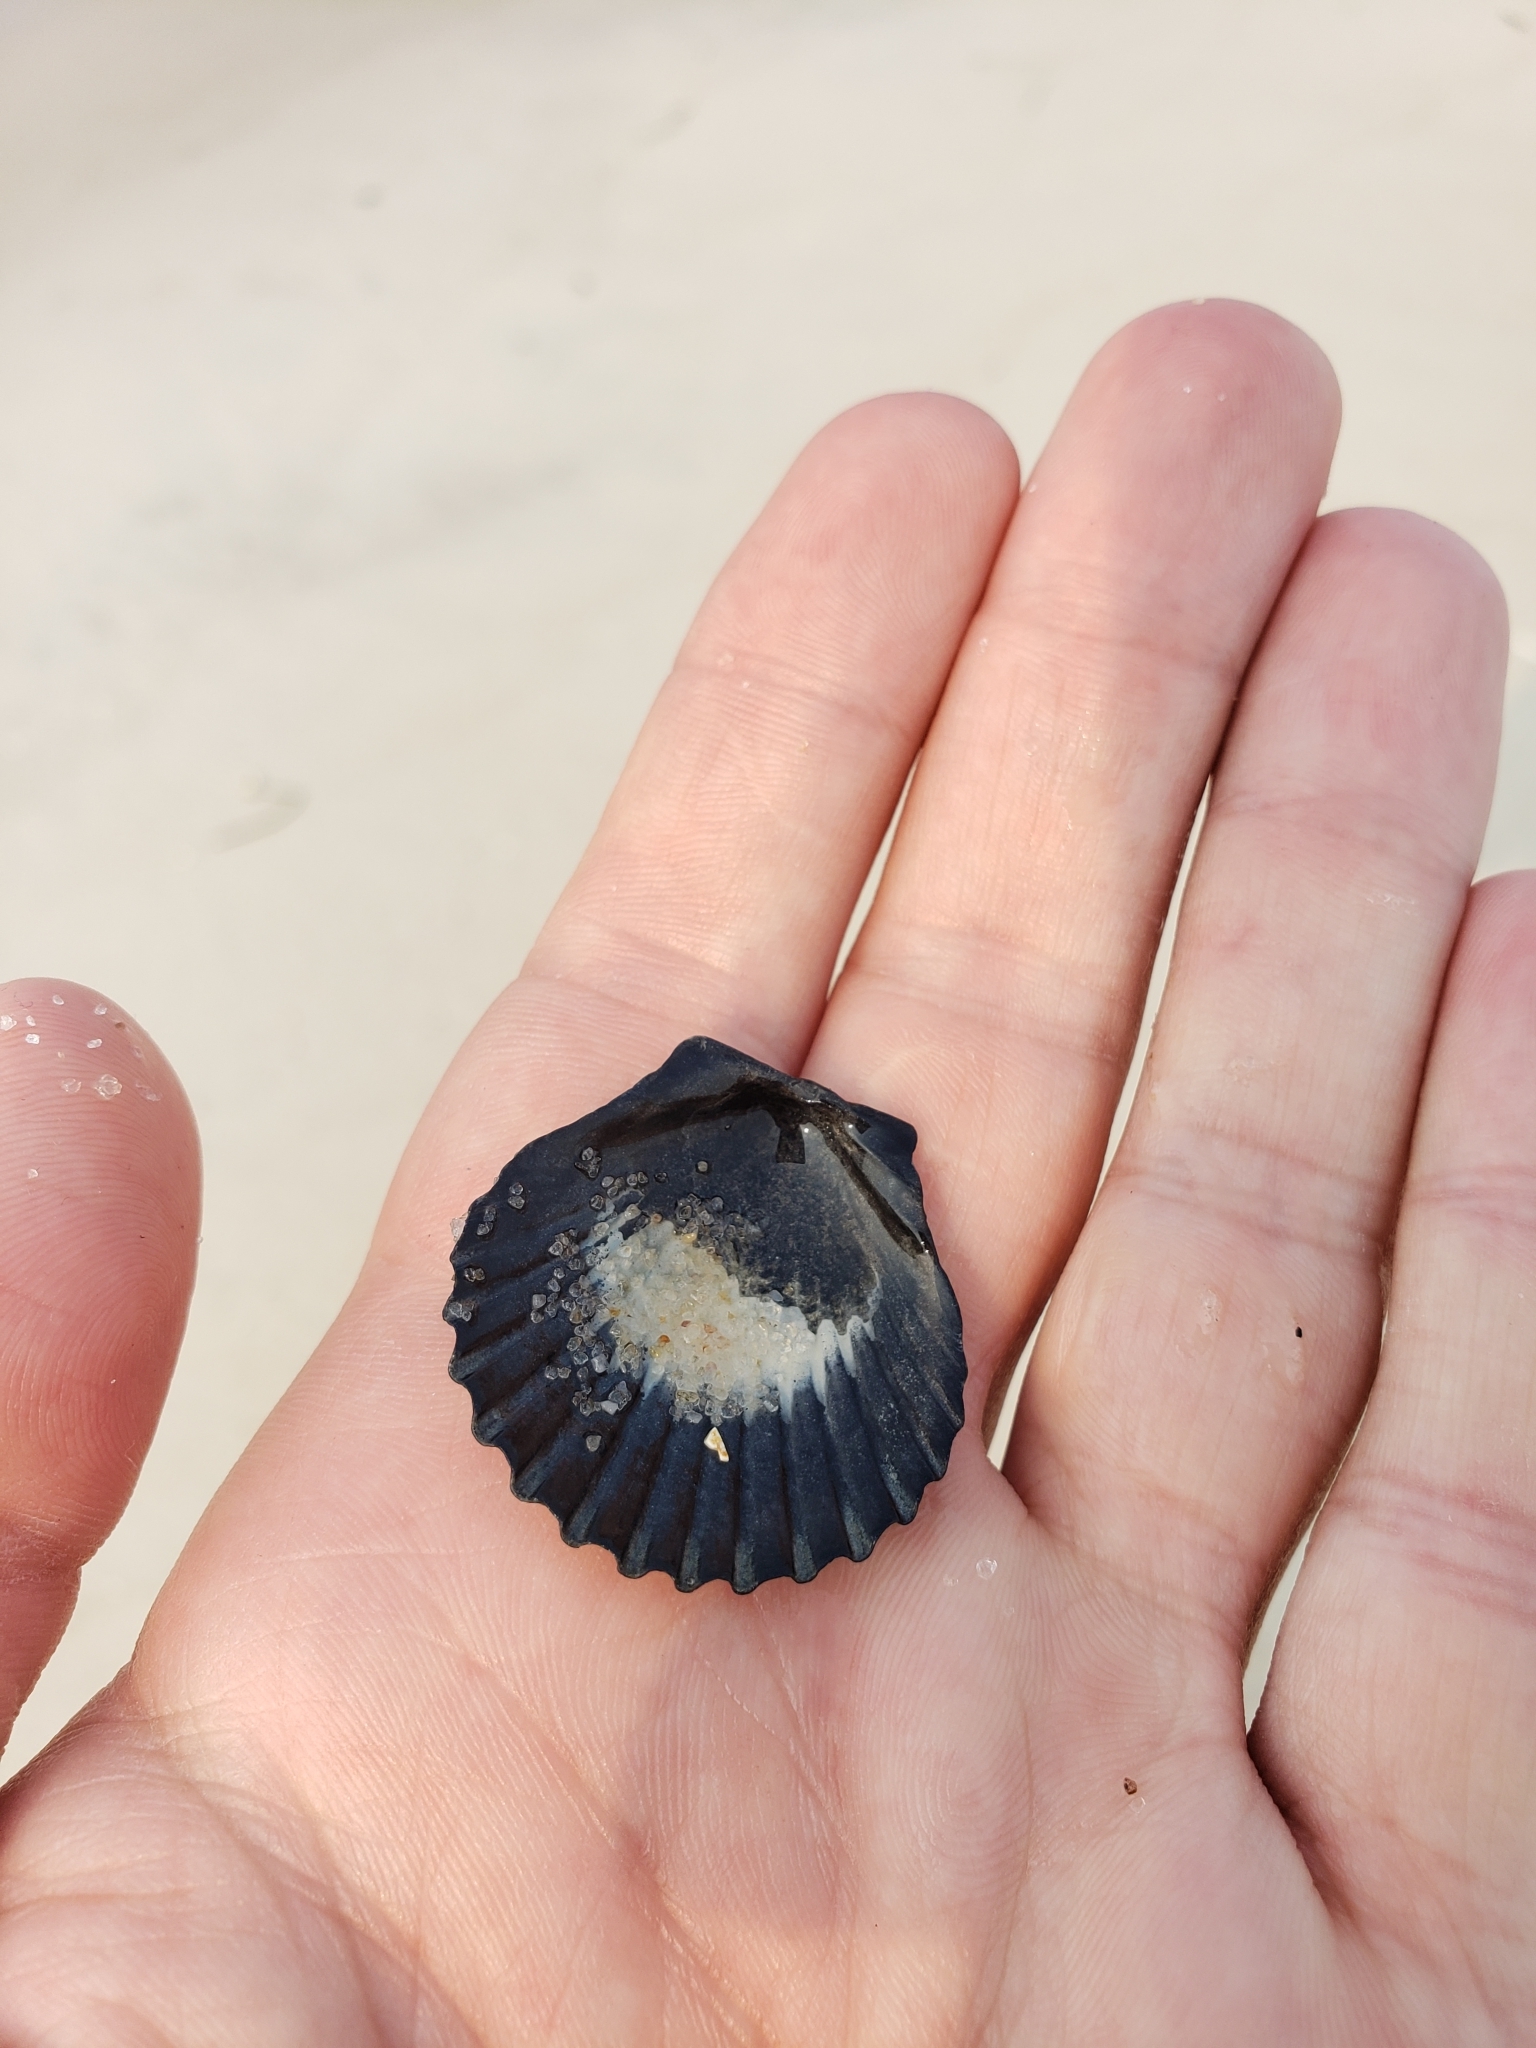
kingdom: Animalia
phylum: Mollusca
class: Bivalvia
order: Pectinida
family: Pectinidae
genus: Argopecten
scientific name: Argopecten irradians
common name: Atlantic bay scallop
